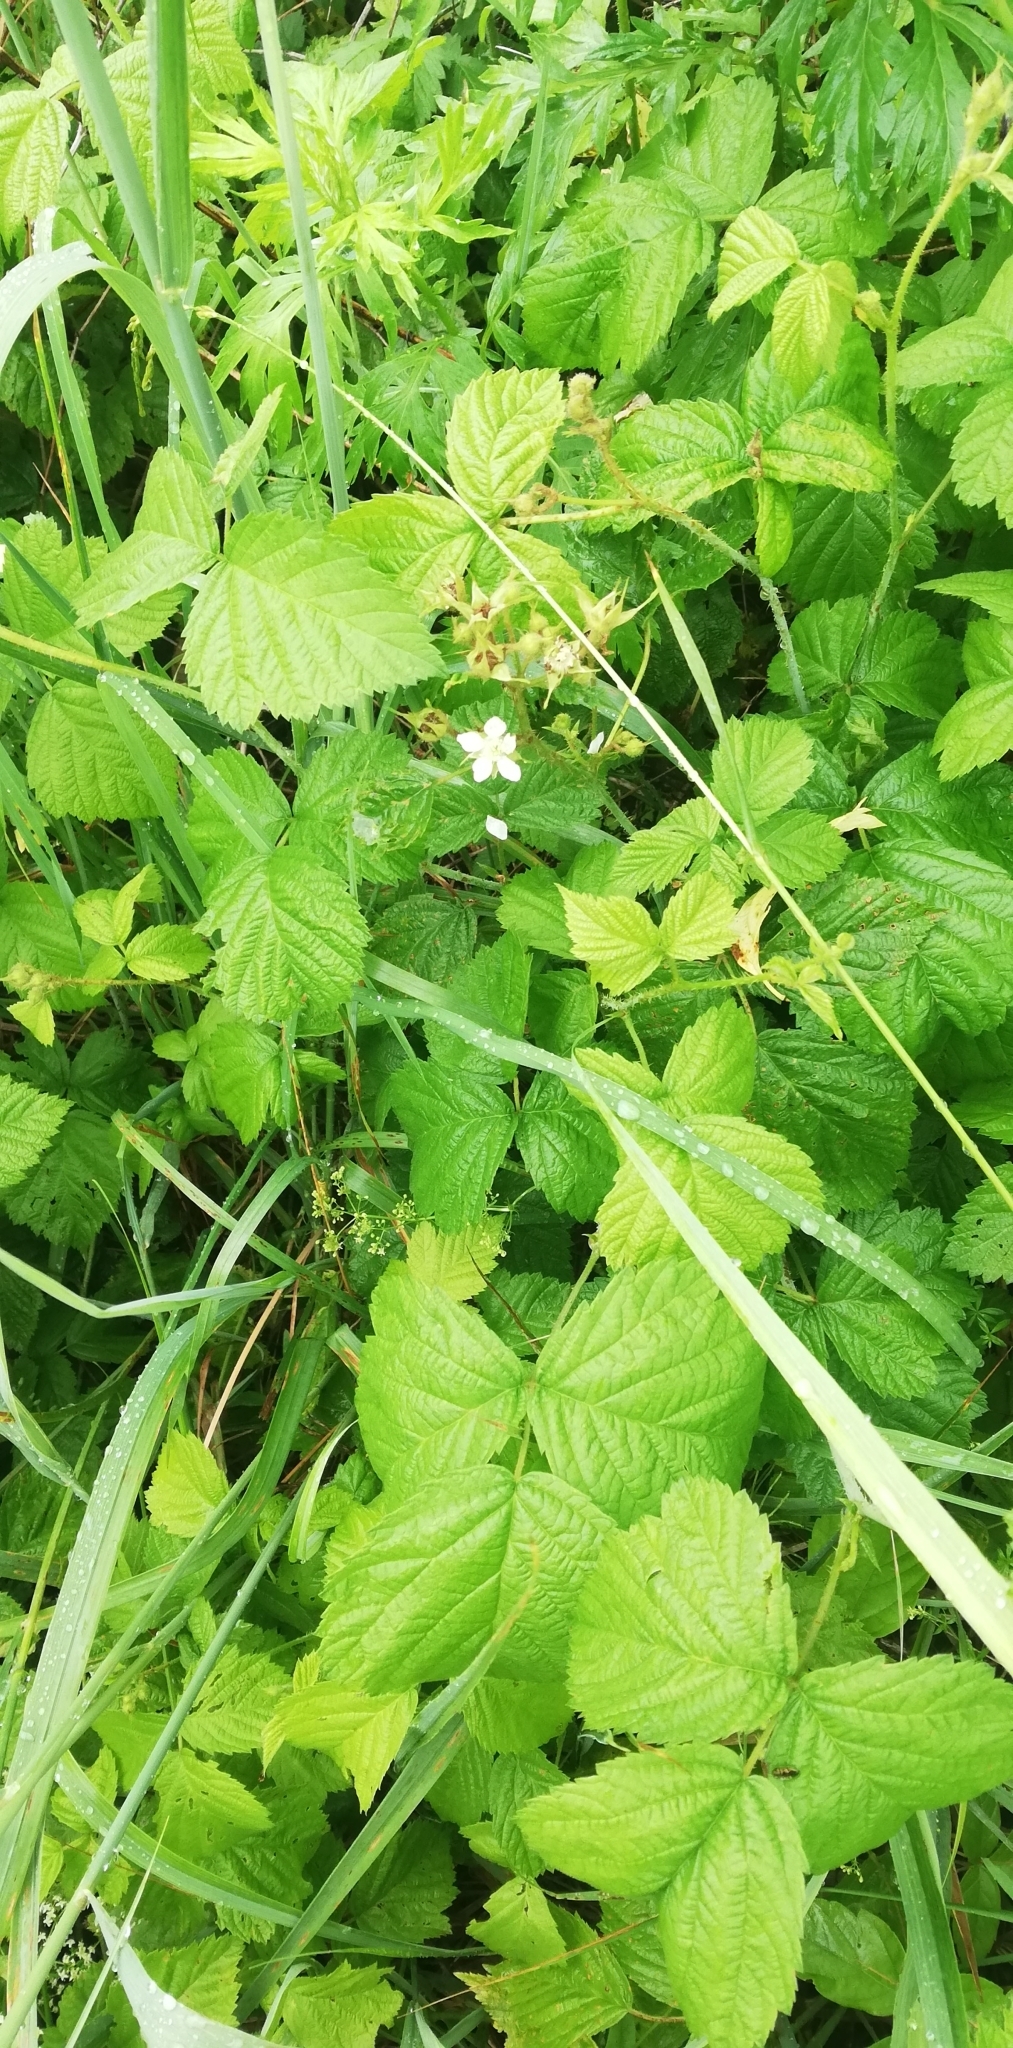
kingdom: Plantae
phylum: Tracheophyta
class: Magnoliopsida
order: Rosales
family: Rosaceae
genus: Rubus
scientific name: Rubus caesius
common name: Dewberry
